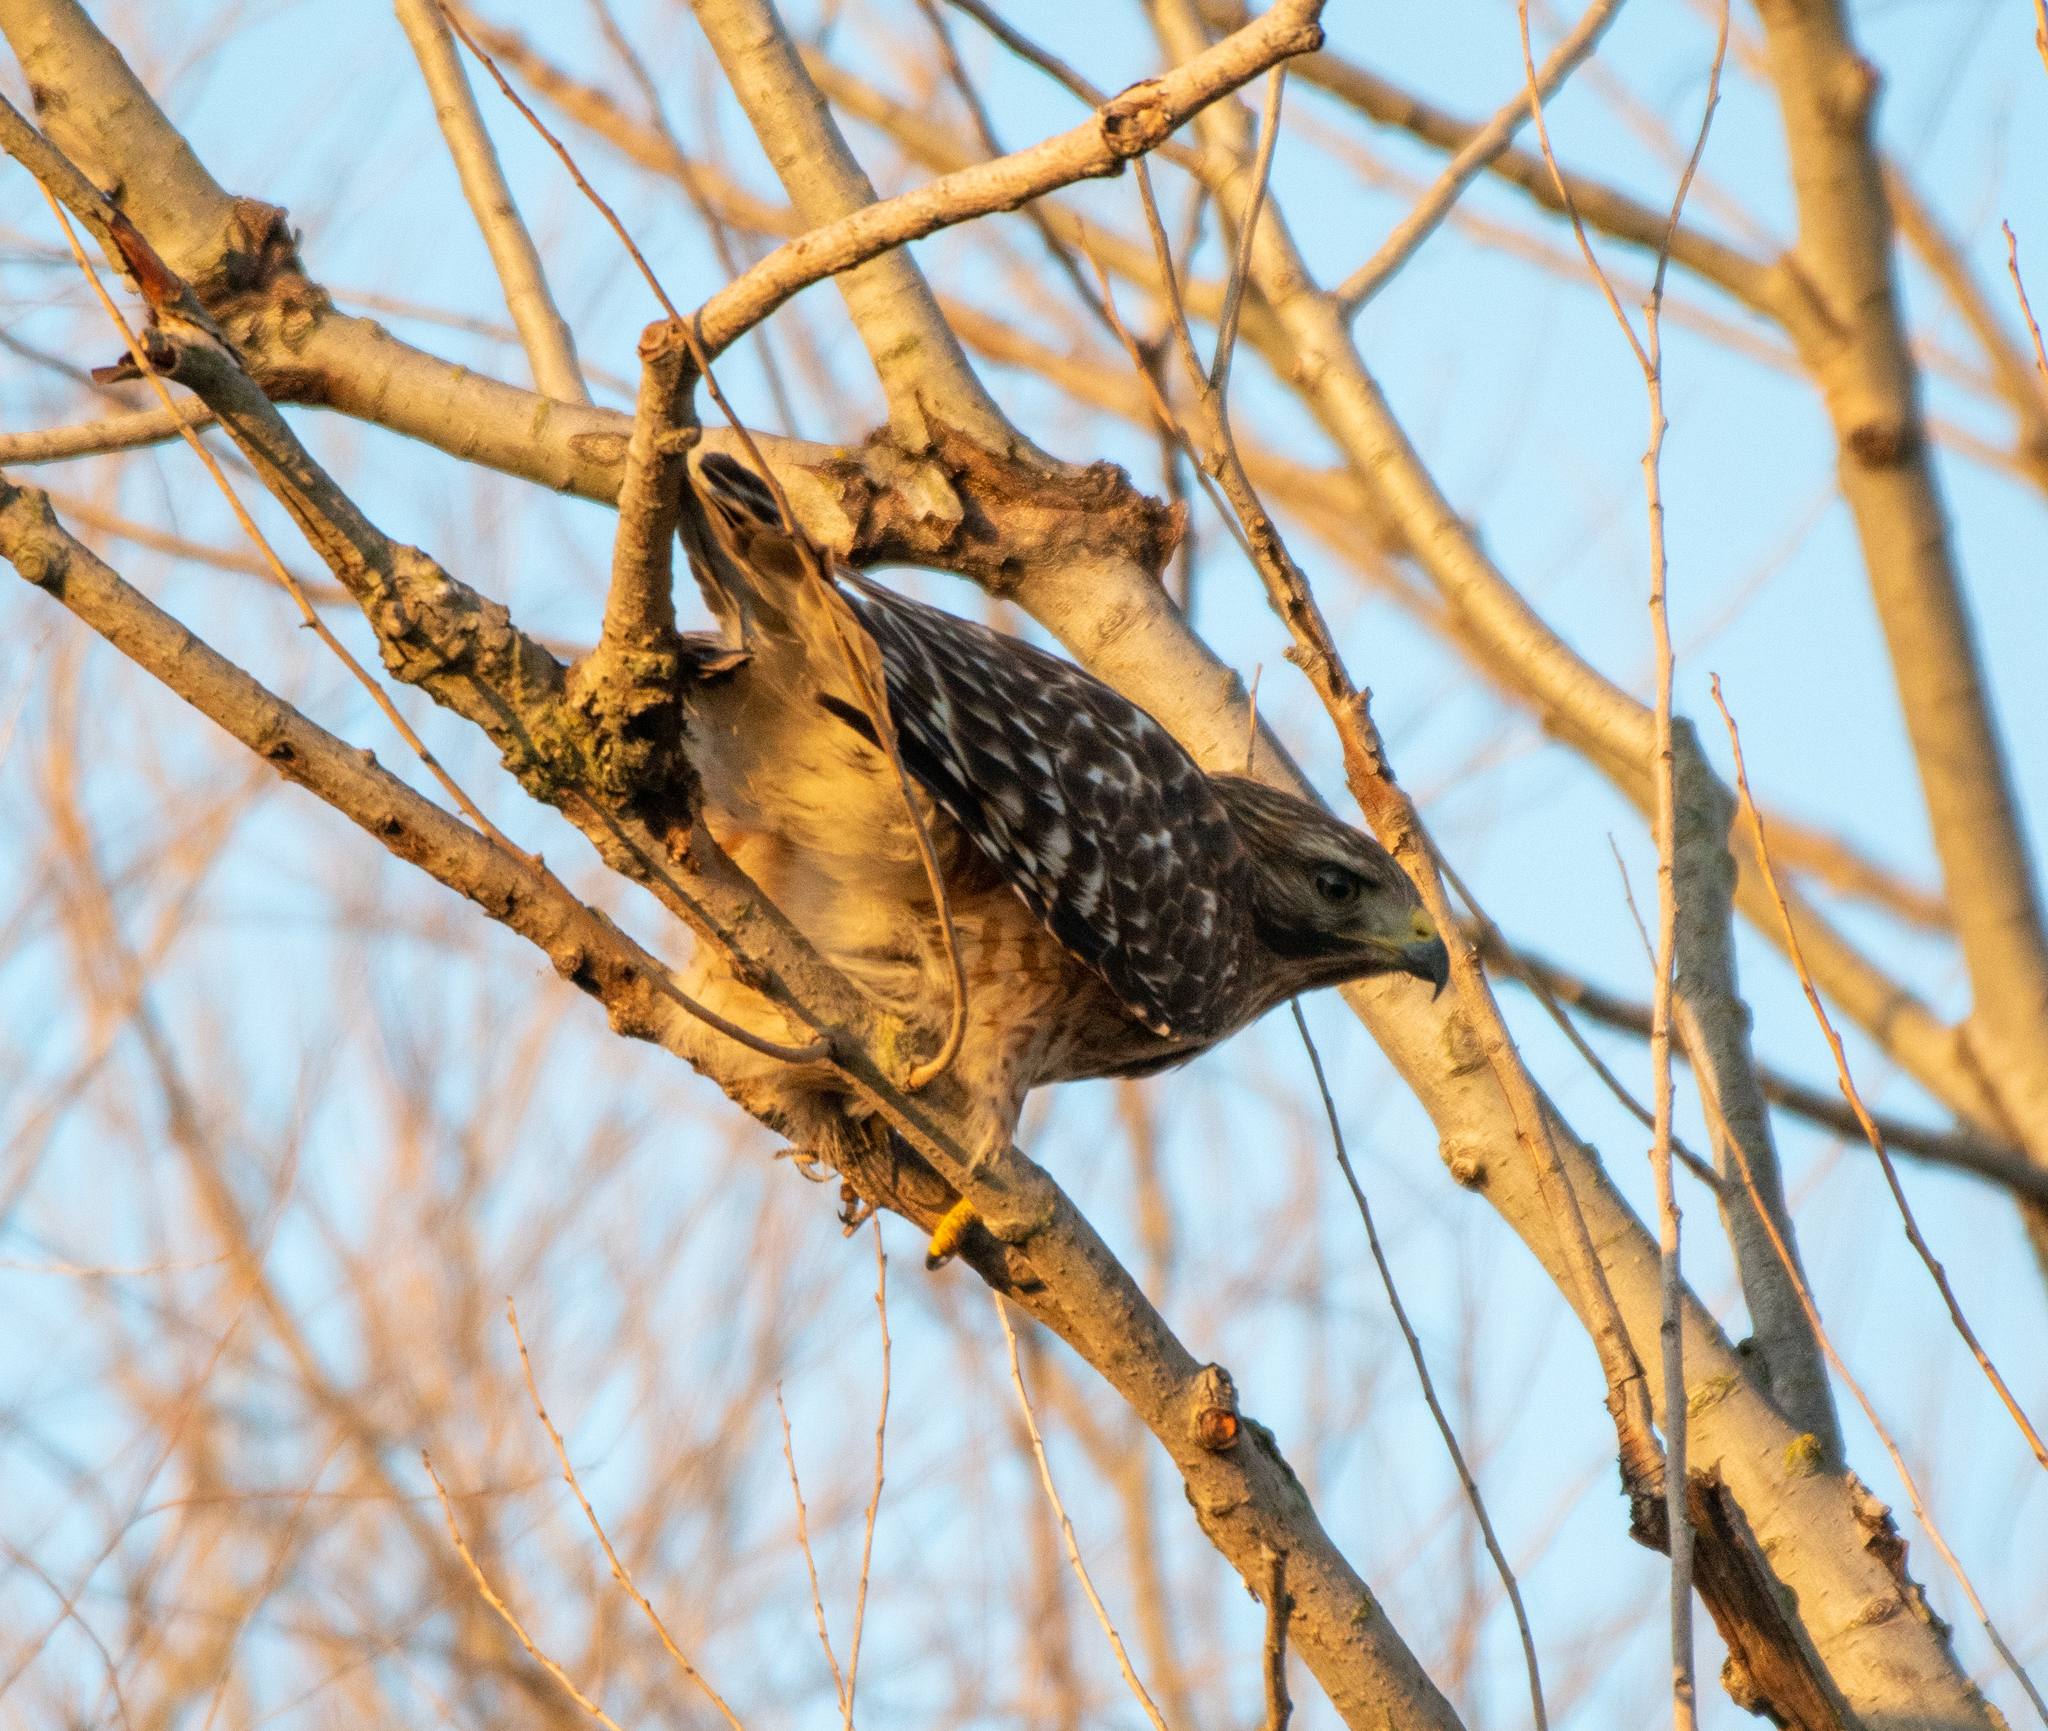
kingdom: Animalia
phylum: Chordata
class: Aves
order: Accipitriformes
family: Accipitridae
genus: Buteo
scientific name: Buteo lineatus
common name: Red-shouldered hawk
